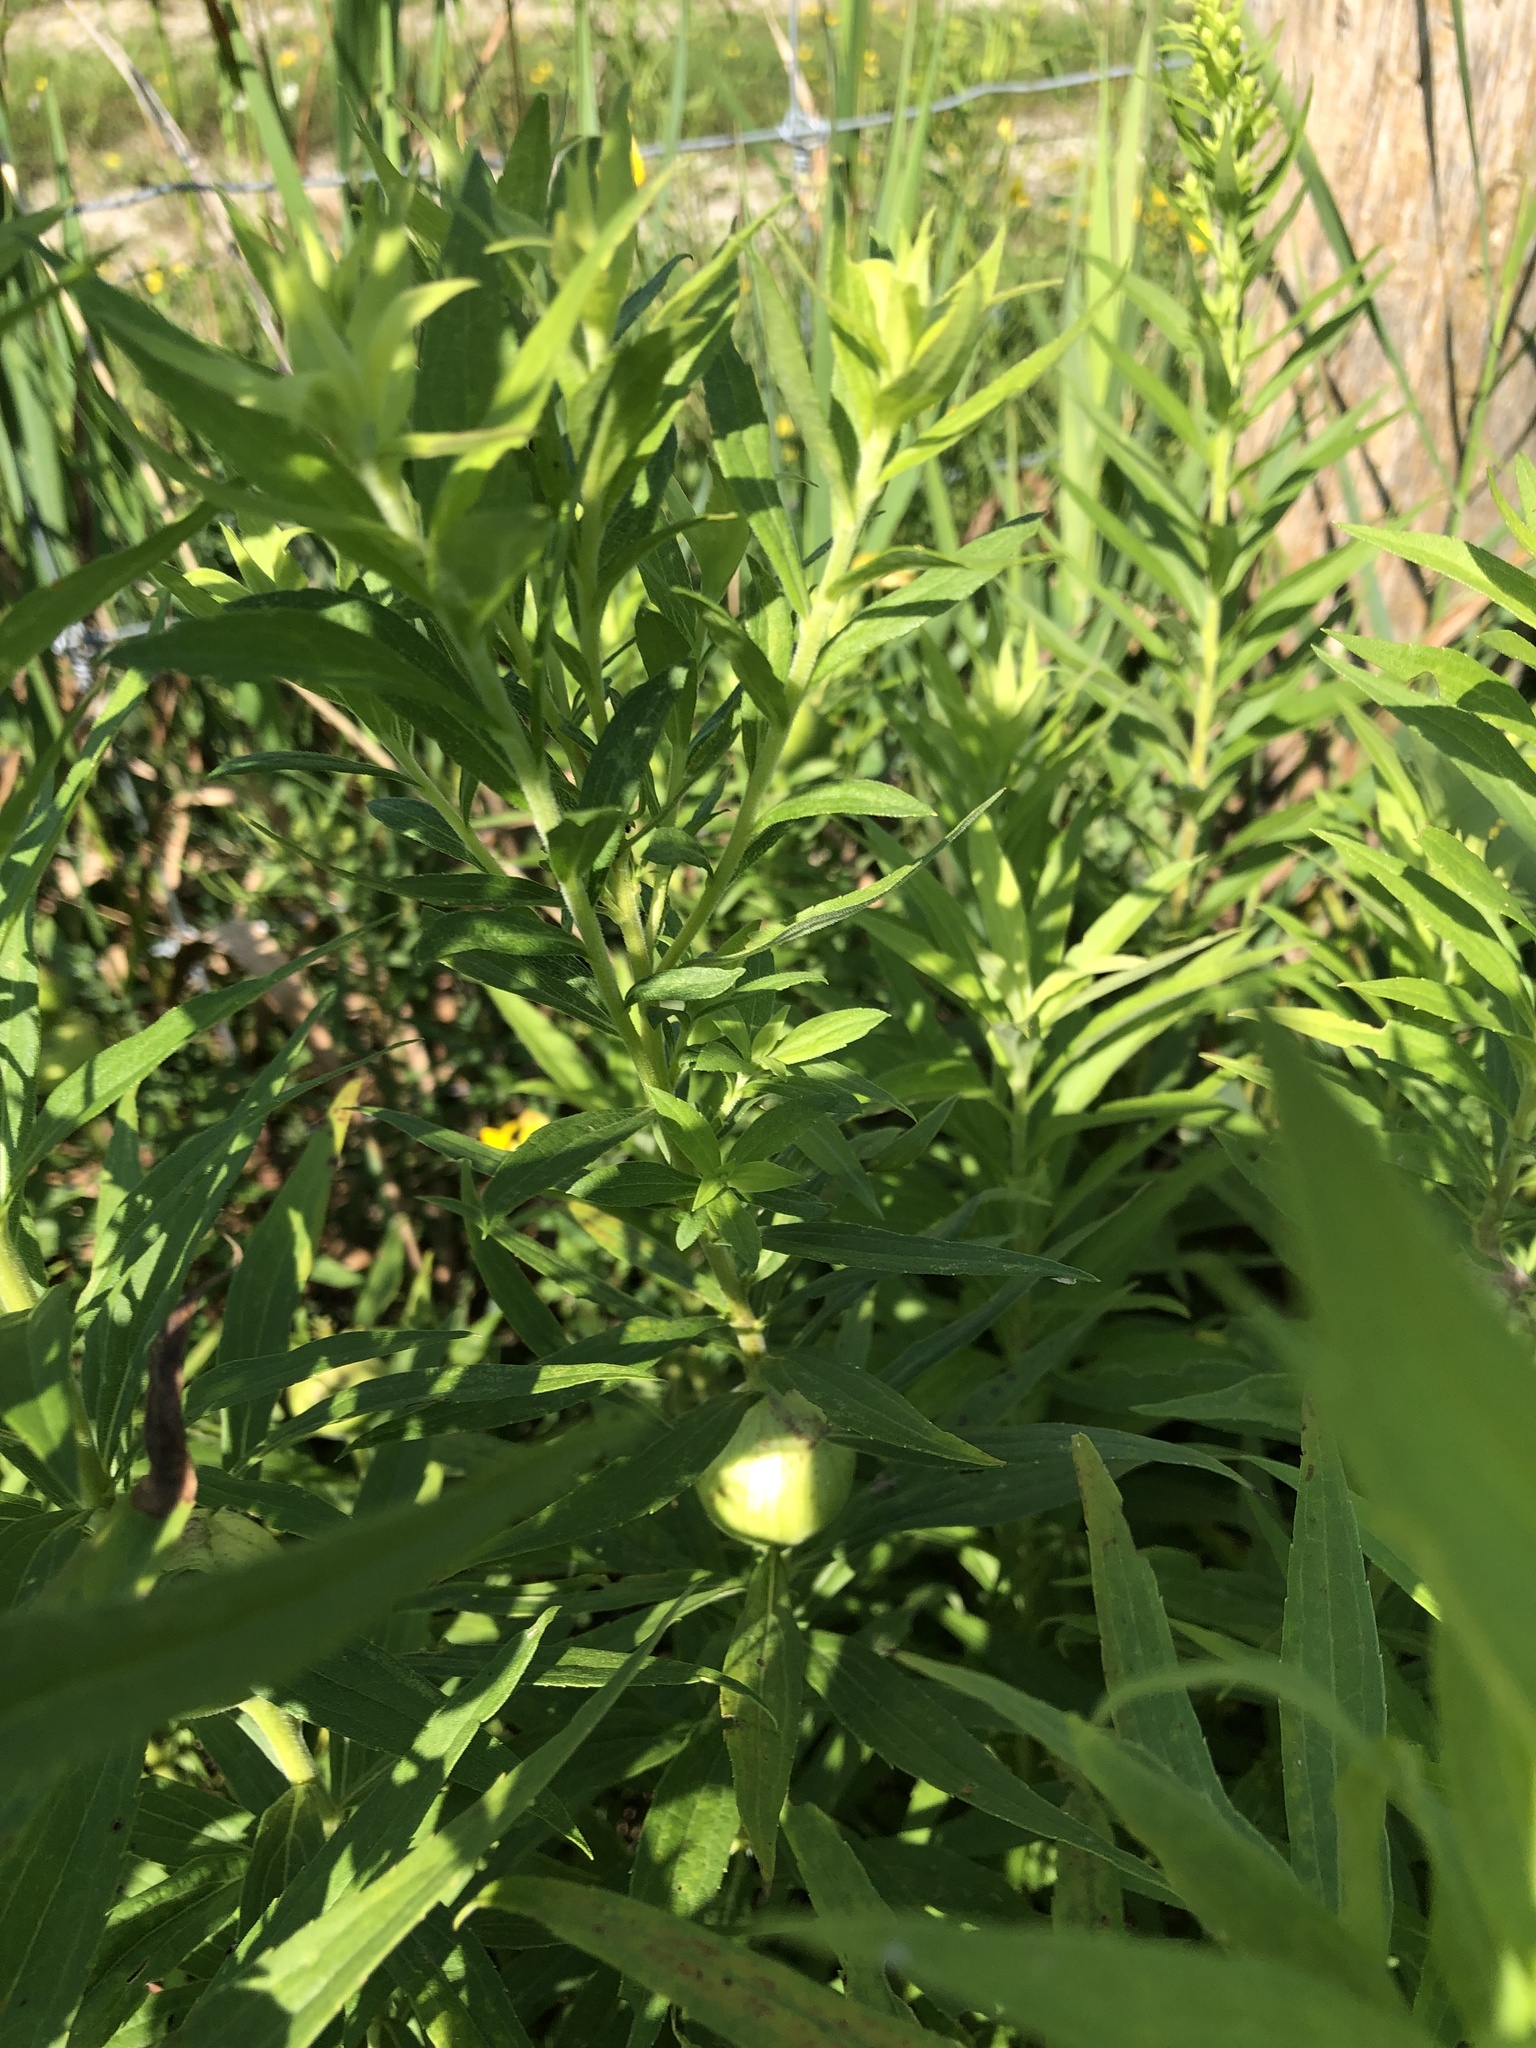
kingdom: Animalia
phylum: Arthropoda
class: Insecta
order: Diptera
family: Tephritidae
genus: Eurosta
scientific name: Eurosta solidaginis
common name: Goldenrod gall fly
